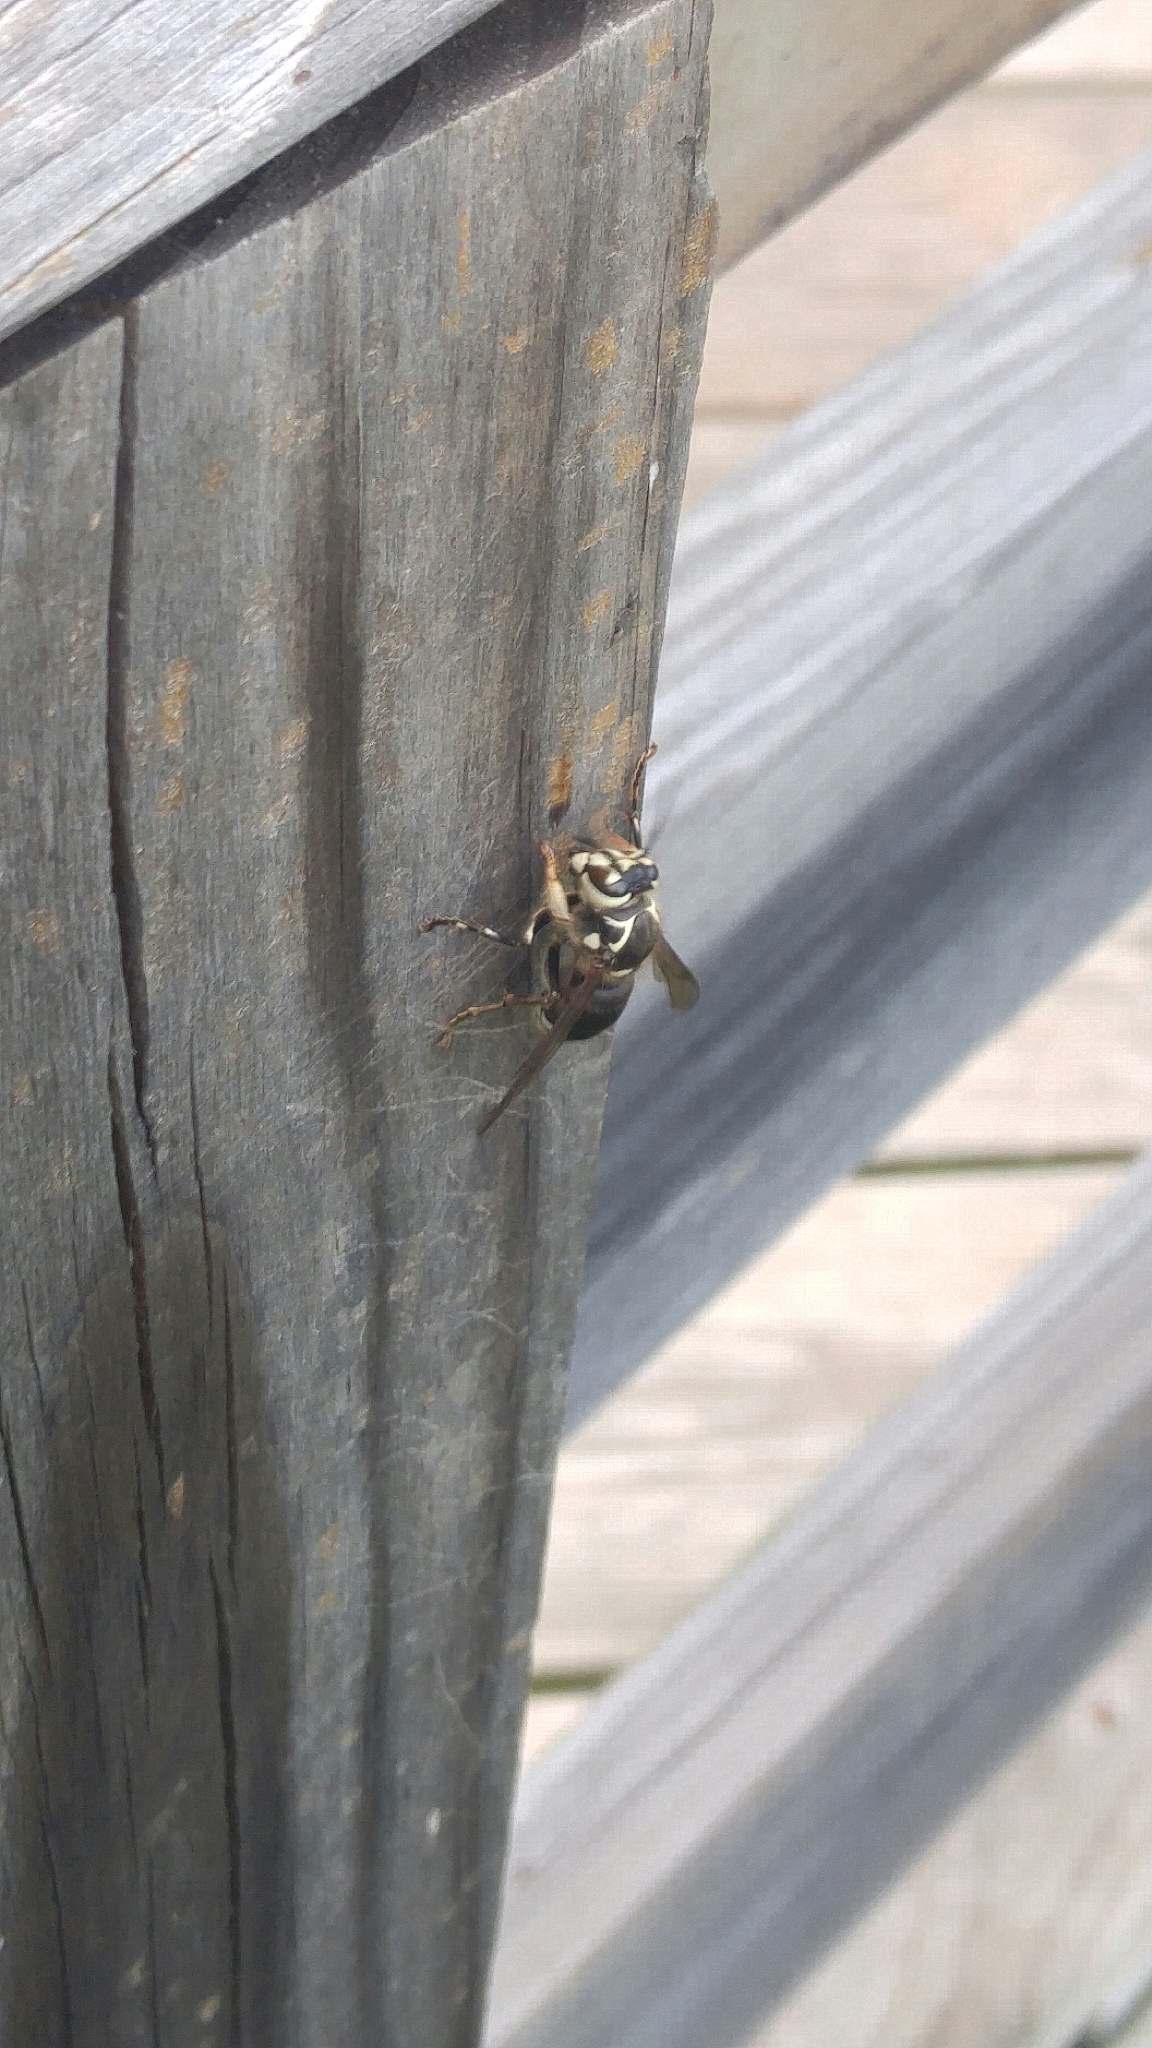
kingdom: Animalia
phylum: Arthropoda
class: Insecta
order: Hymenoptera
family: Vespidae
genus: Dolichovespula
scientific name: Dolichovespula maculata
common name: Bald-faced hornet
